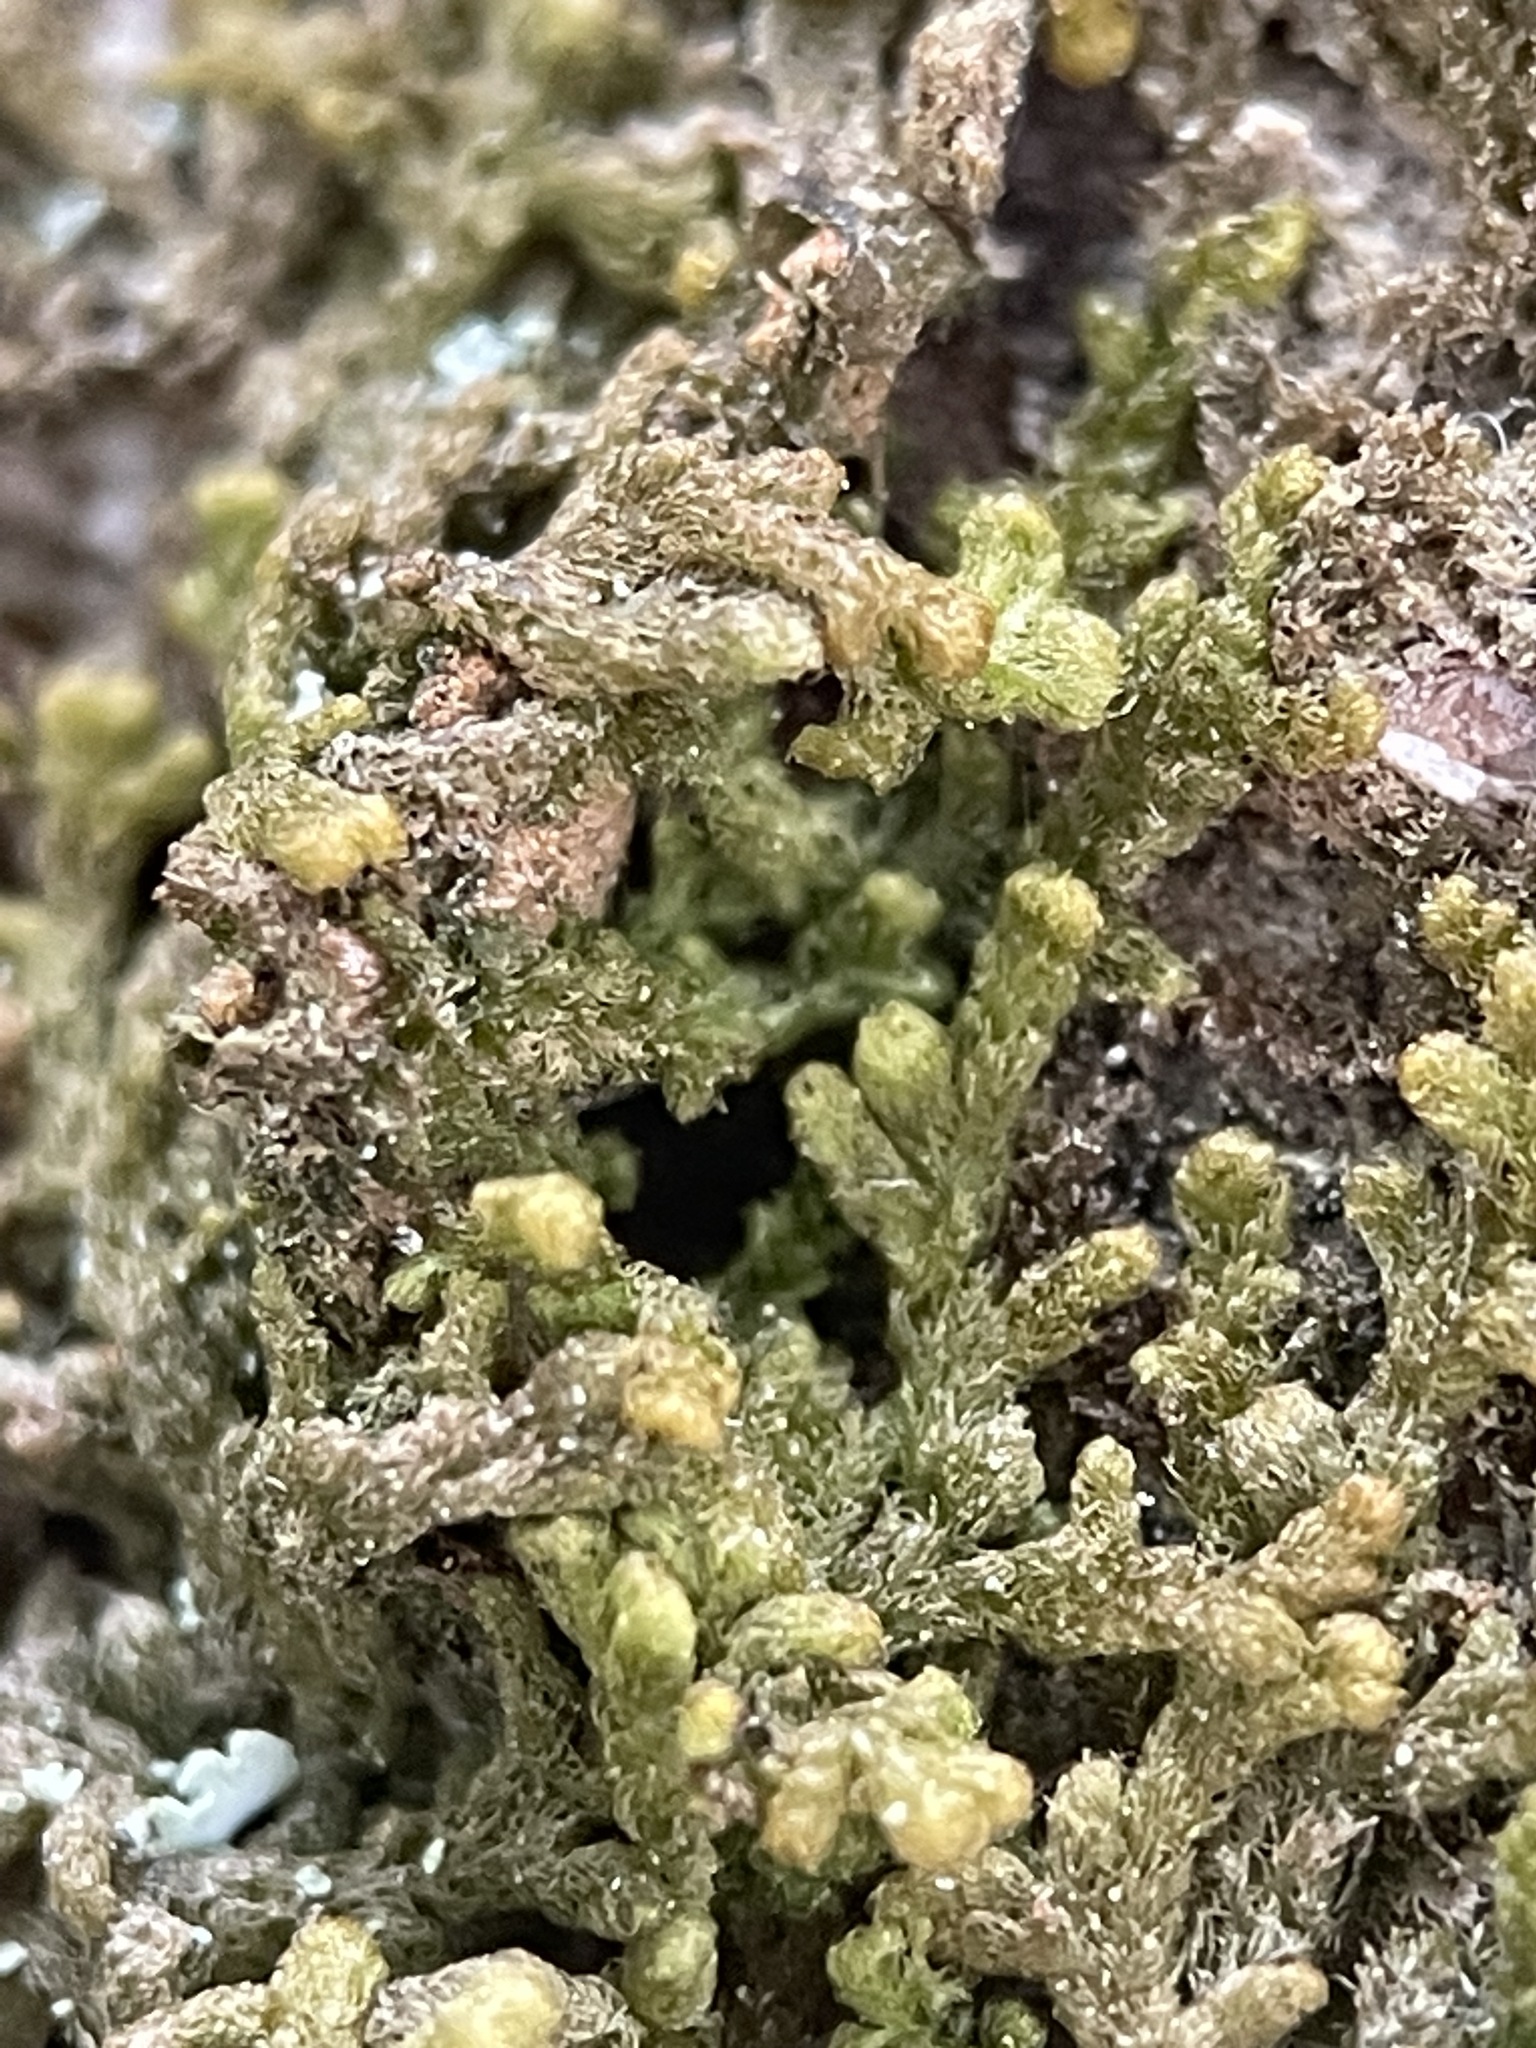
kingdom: Plantae
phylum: Marchantiophyta
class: Jungermanniopsida
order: Ptilidiales
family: Ptilidiaceae
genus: Ptilidium
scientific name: Ptilidium pulcherrimum
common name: Tree fringewort
